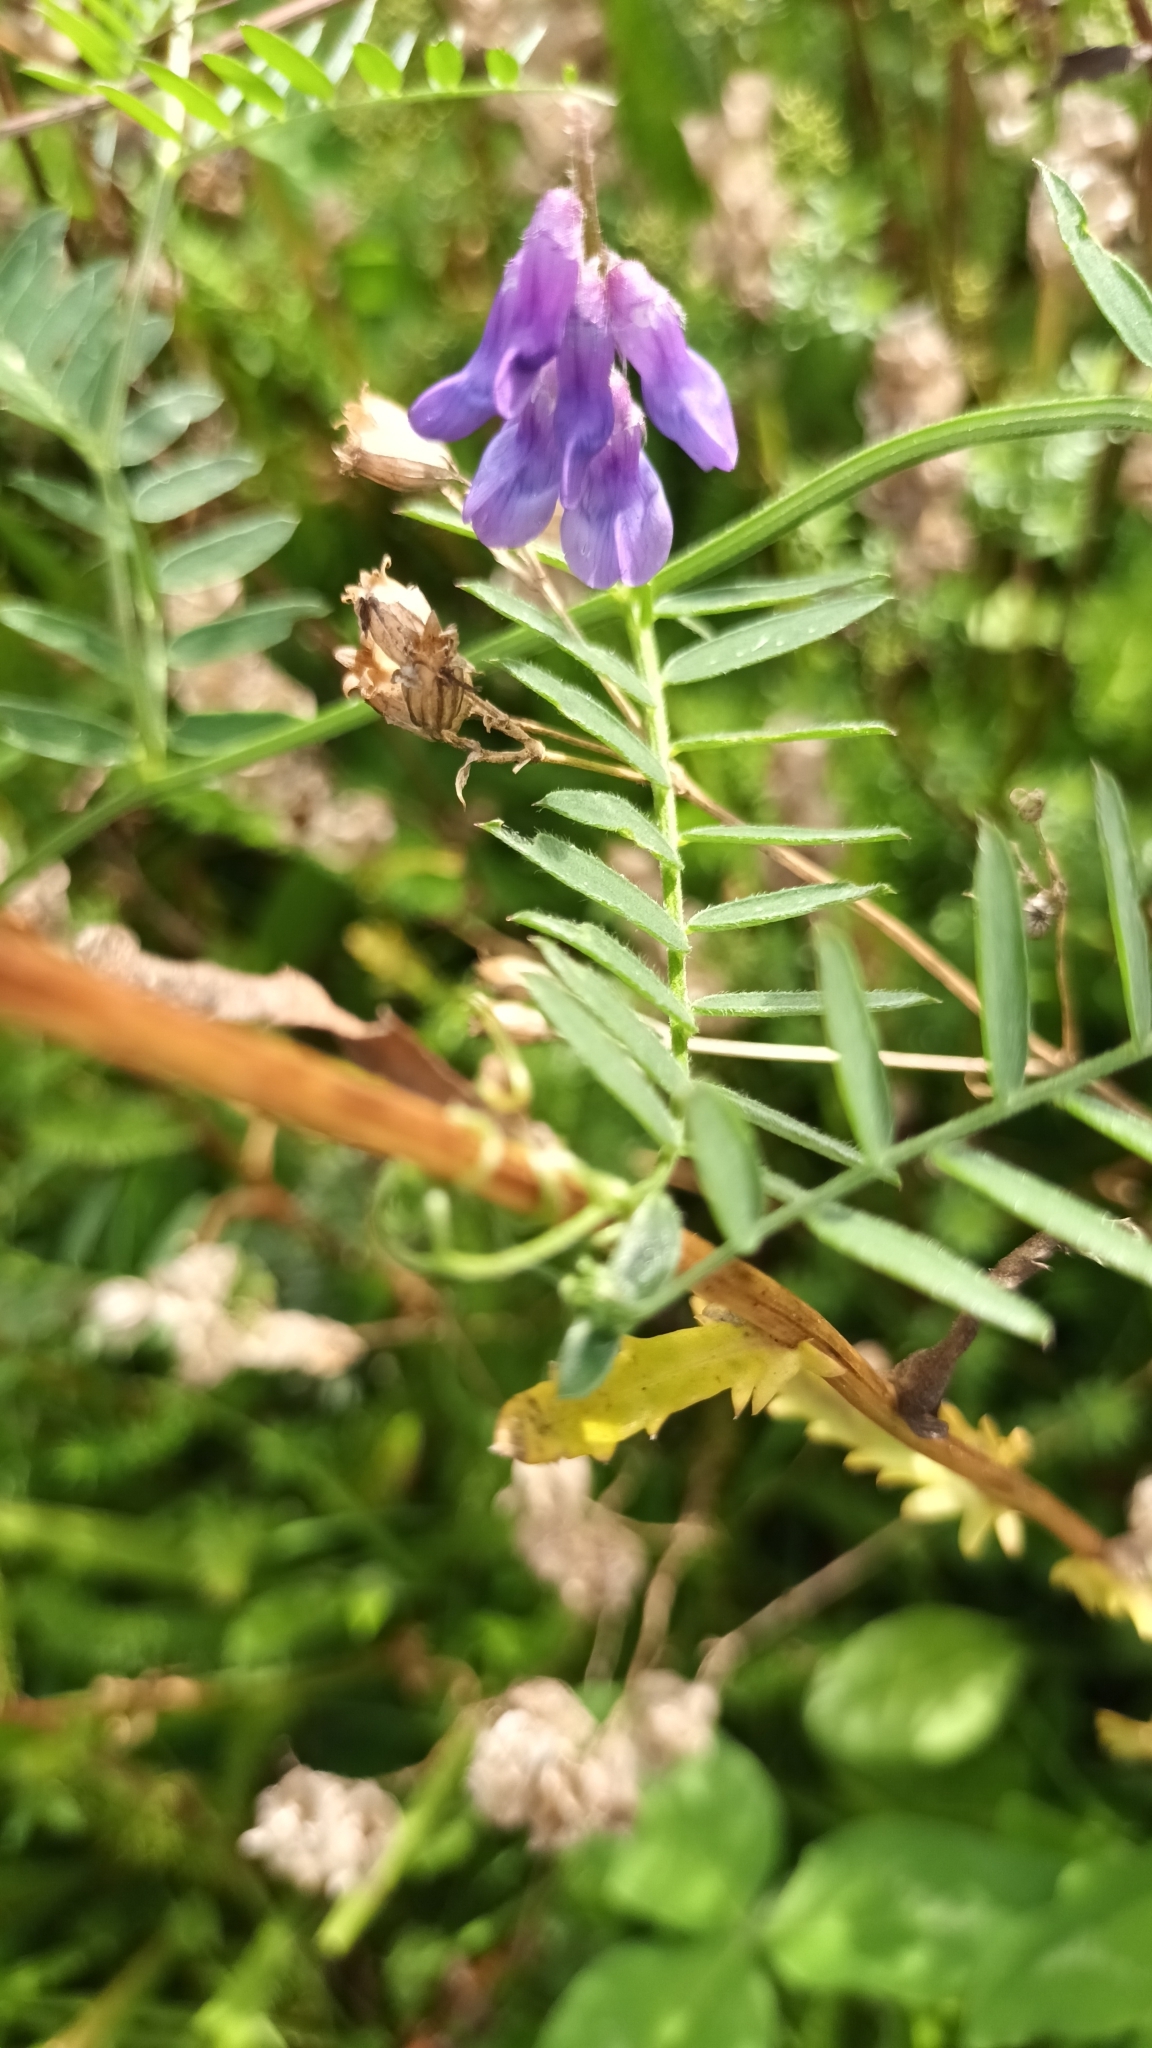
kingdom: Plantae
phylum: Tracheophyta
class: Magnoliopsida
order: Fabales
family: Fabaceae
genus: Vicia
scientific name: Vicia cracca
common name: Bird vetch
